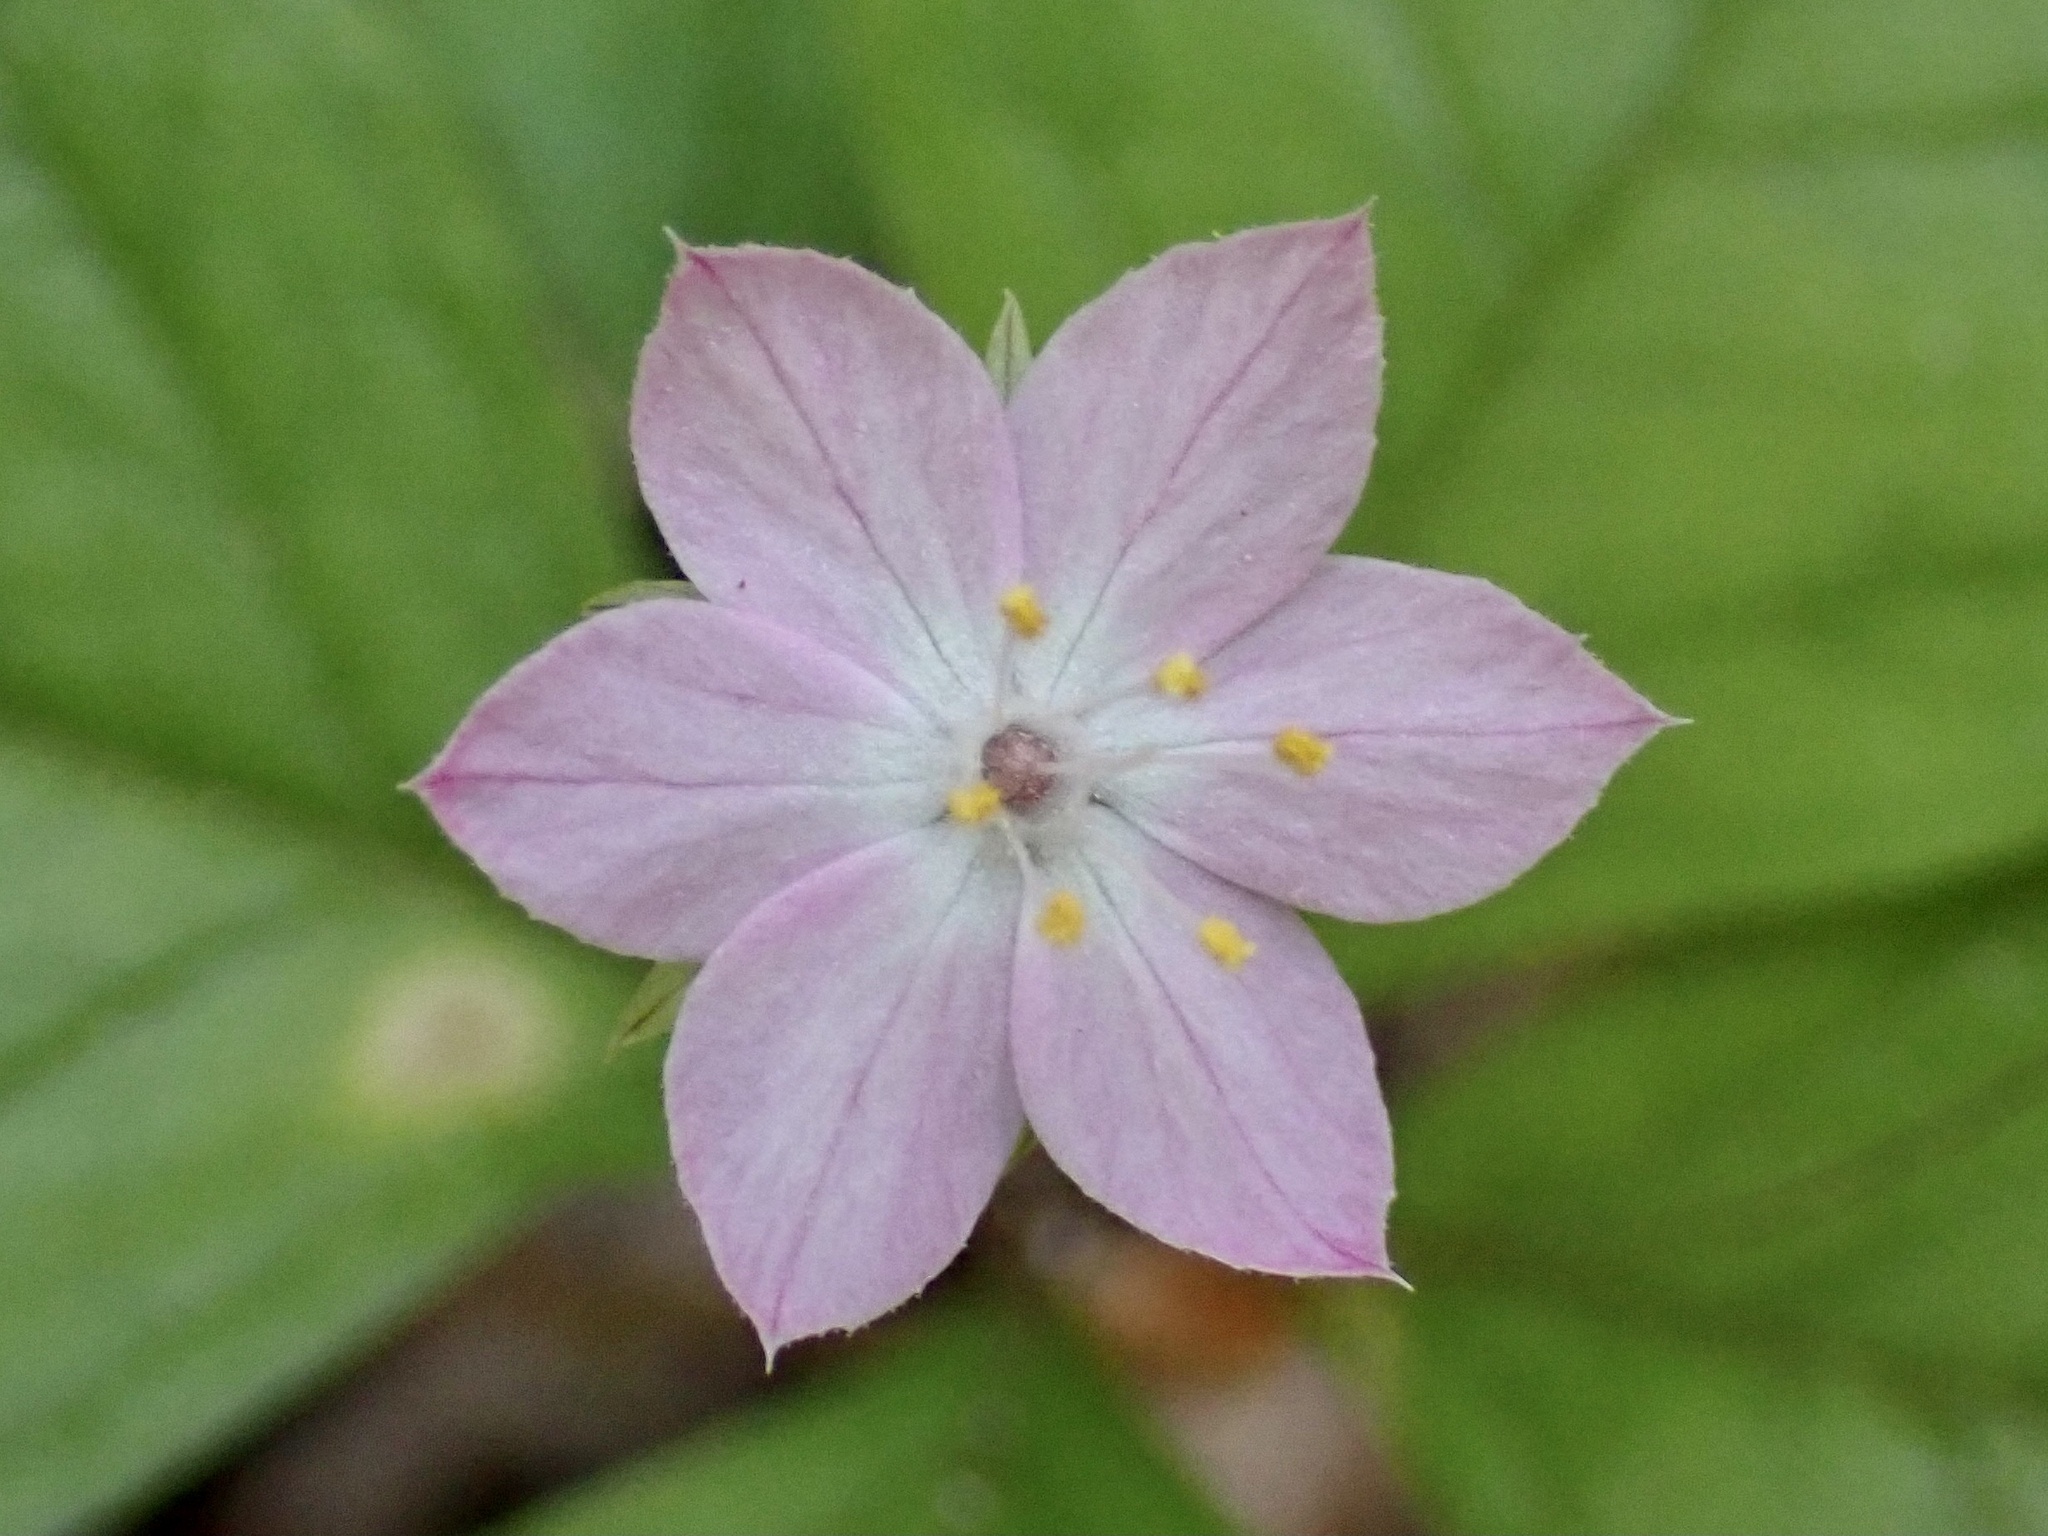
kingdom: Plantae
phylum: Tracheophyta
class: Magnoliopsida
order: Ericales
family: Primulaceae
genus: Lysimachia
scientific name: Lysimachia latifolia
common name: Pacific starflower
